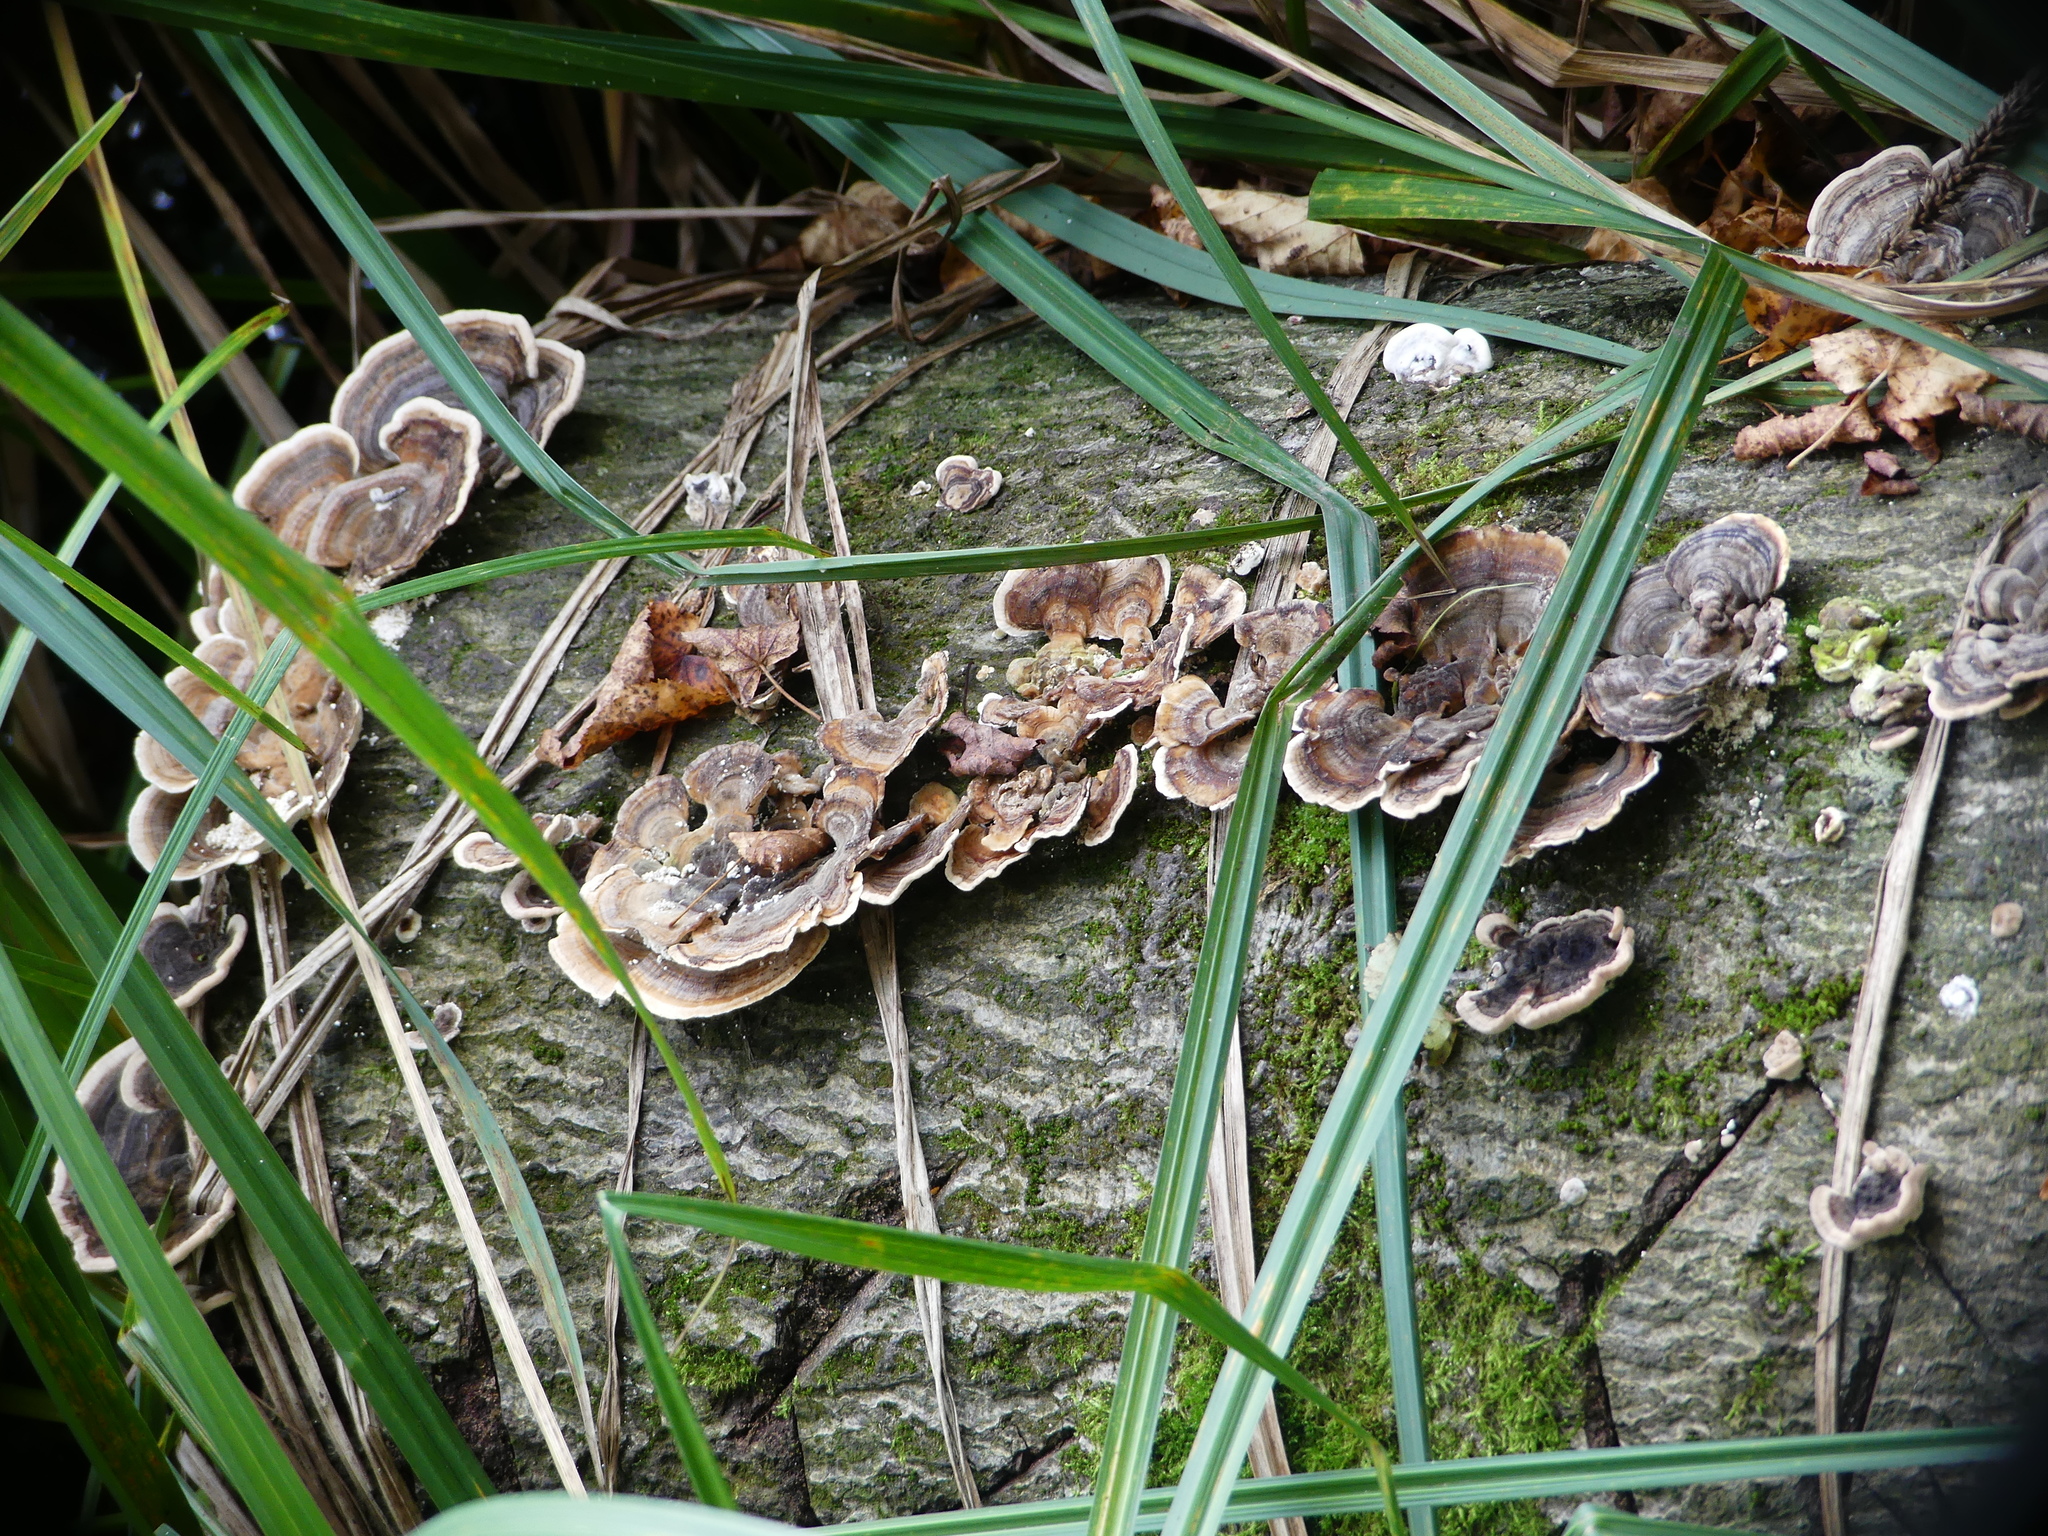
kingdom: Fungi
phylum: Basidiomycota
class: Agaricomycetes
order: Polyporales
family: Polyporaceae
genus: Trametes
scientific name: Trametes versicolor
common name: Turkeytail
